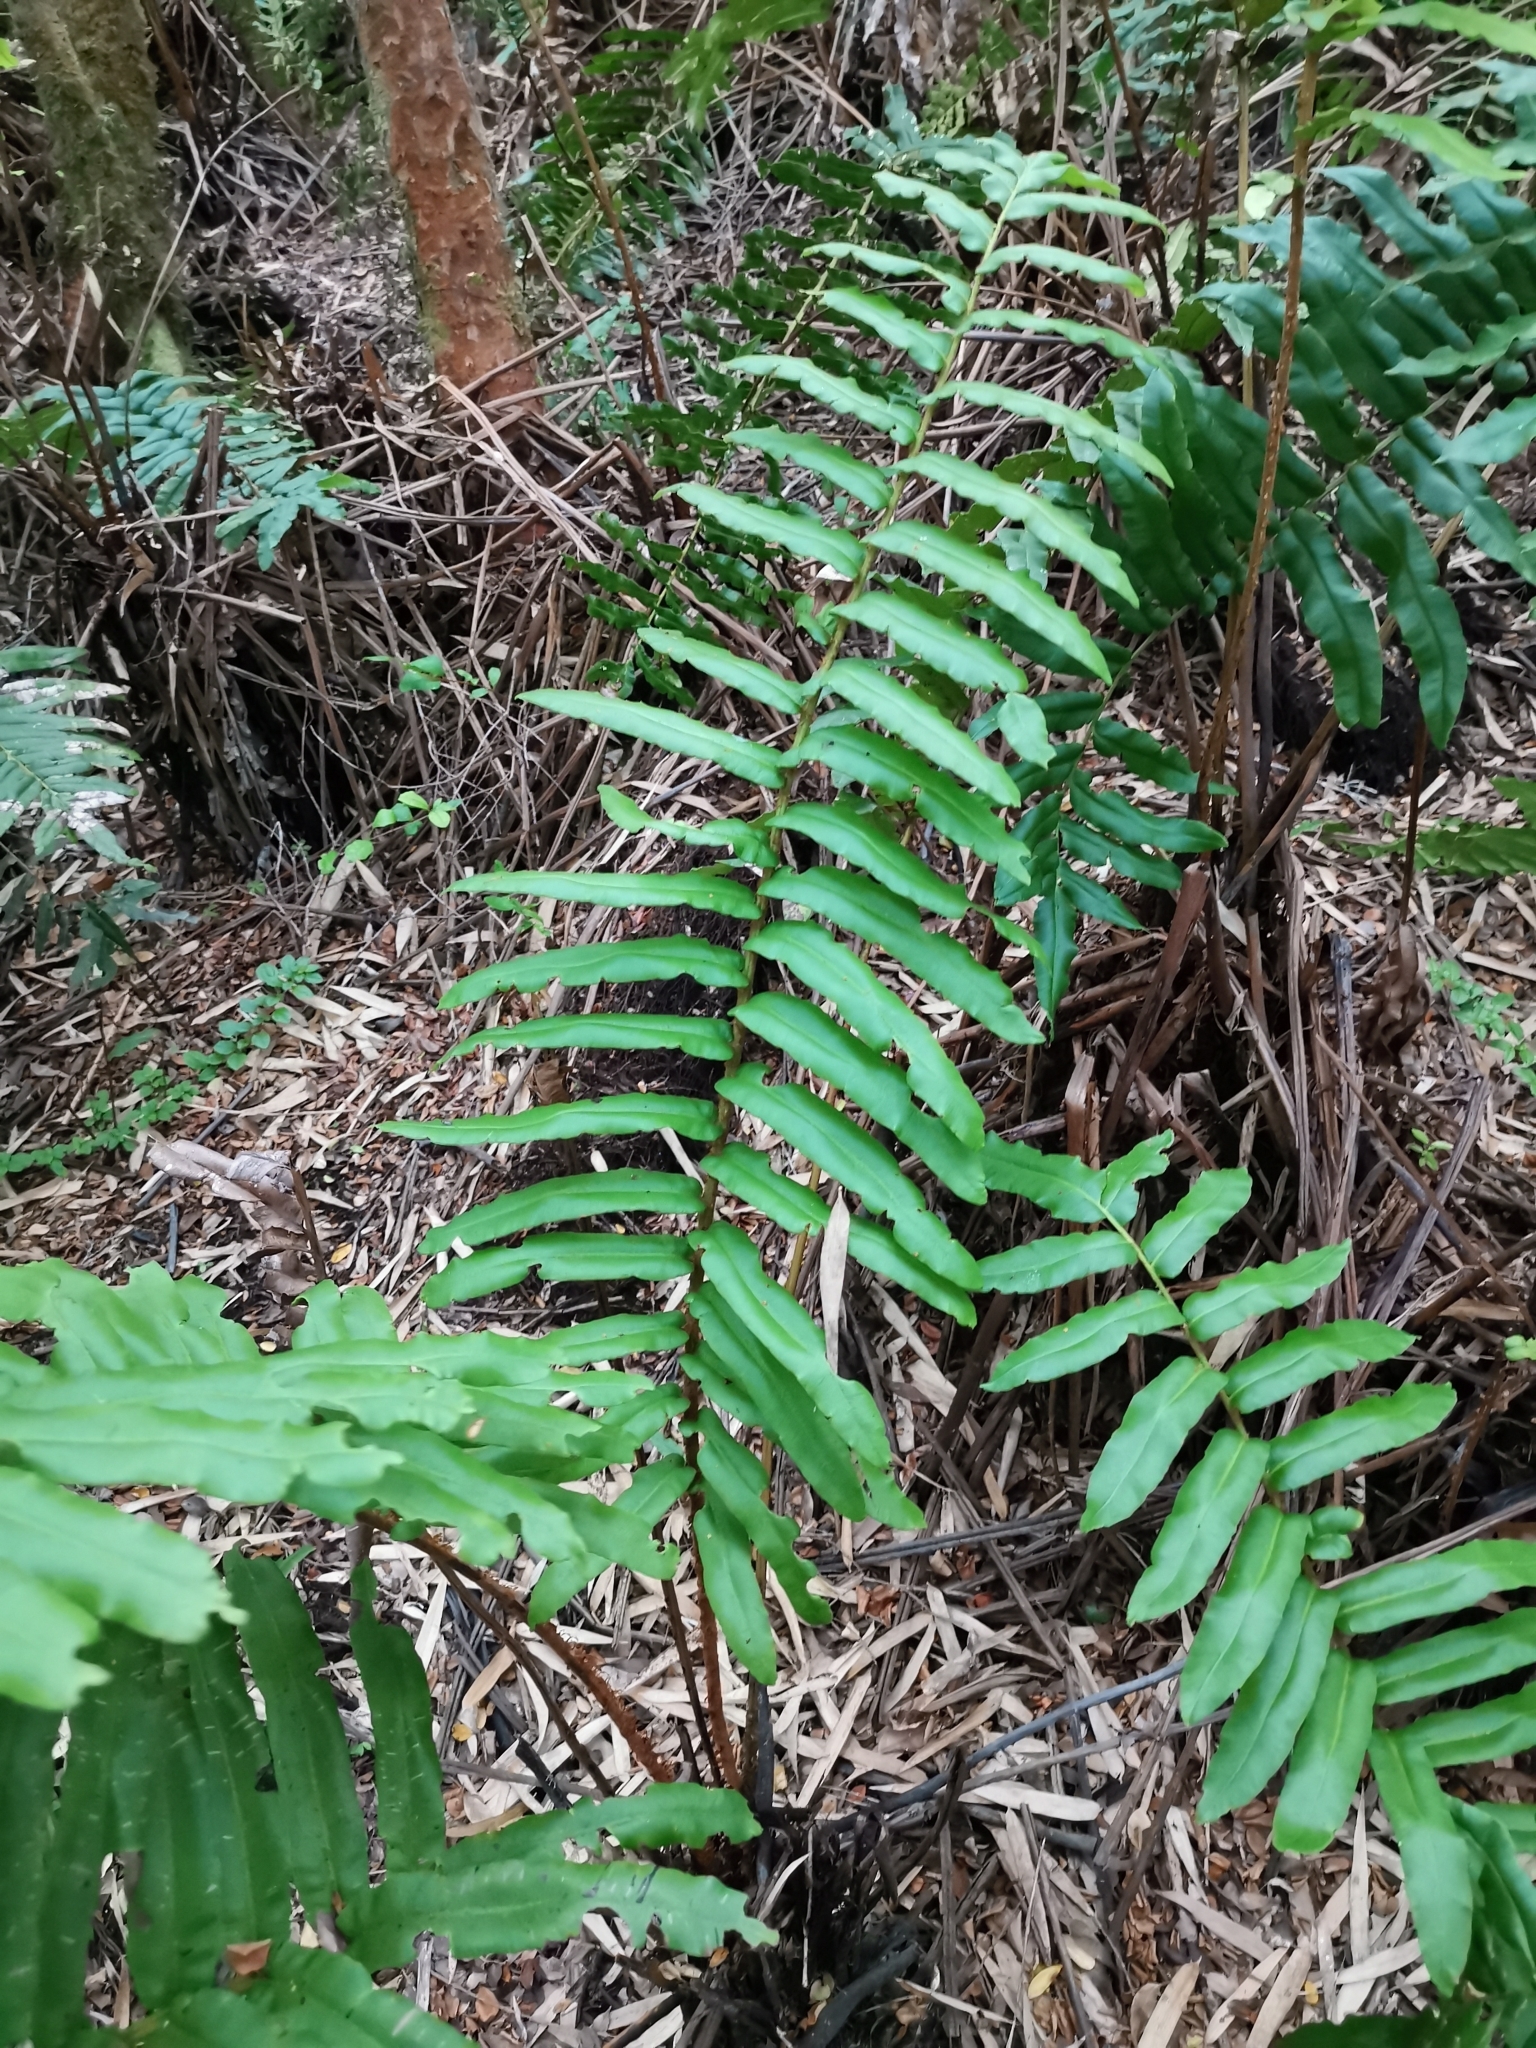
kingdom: Plantae
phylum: Tracheophyta
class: Polypodiopsida
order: Polypodiales
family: Blechnaceae
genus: Parablechnum
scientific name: Parablechnum chilense
